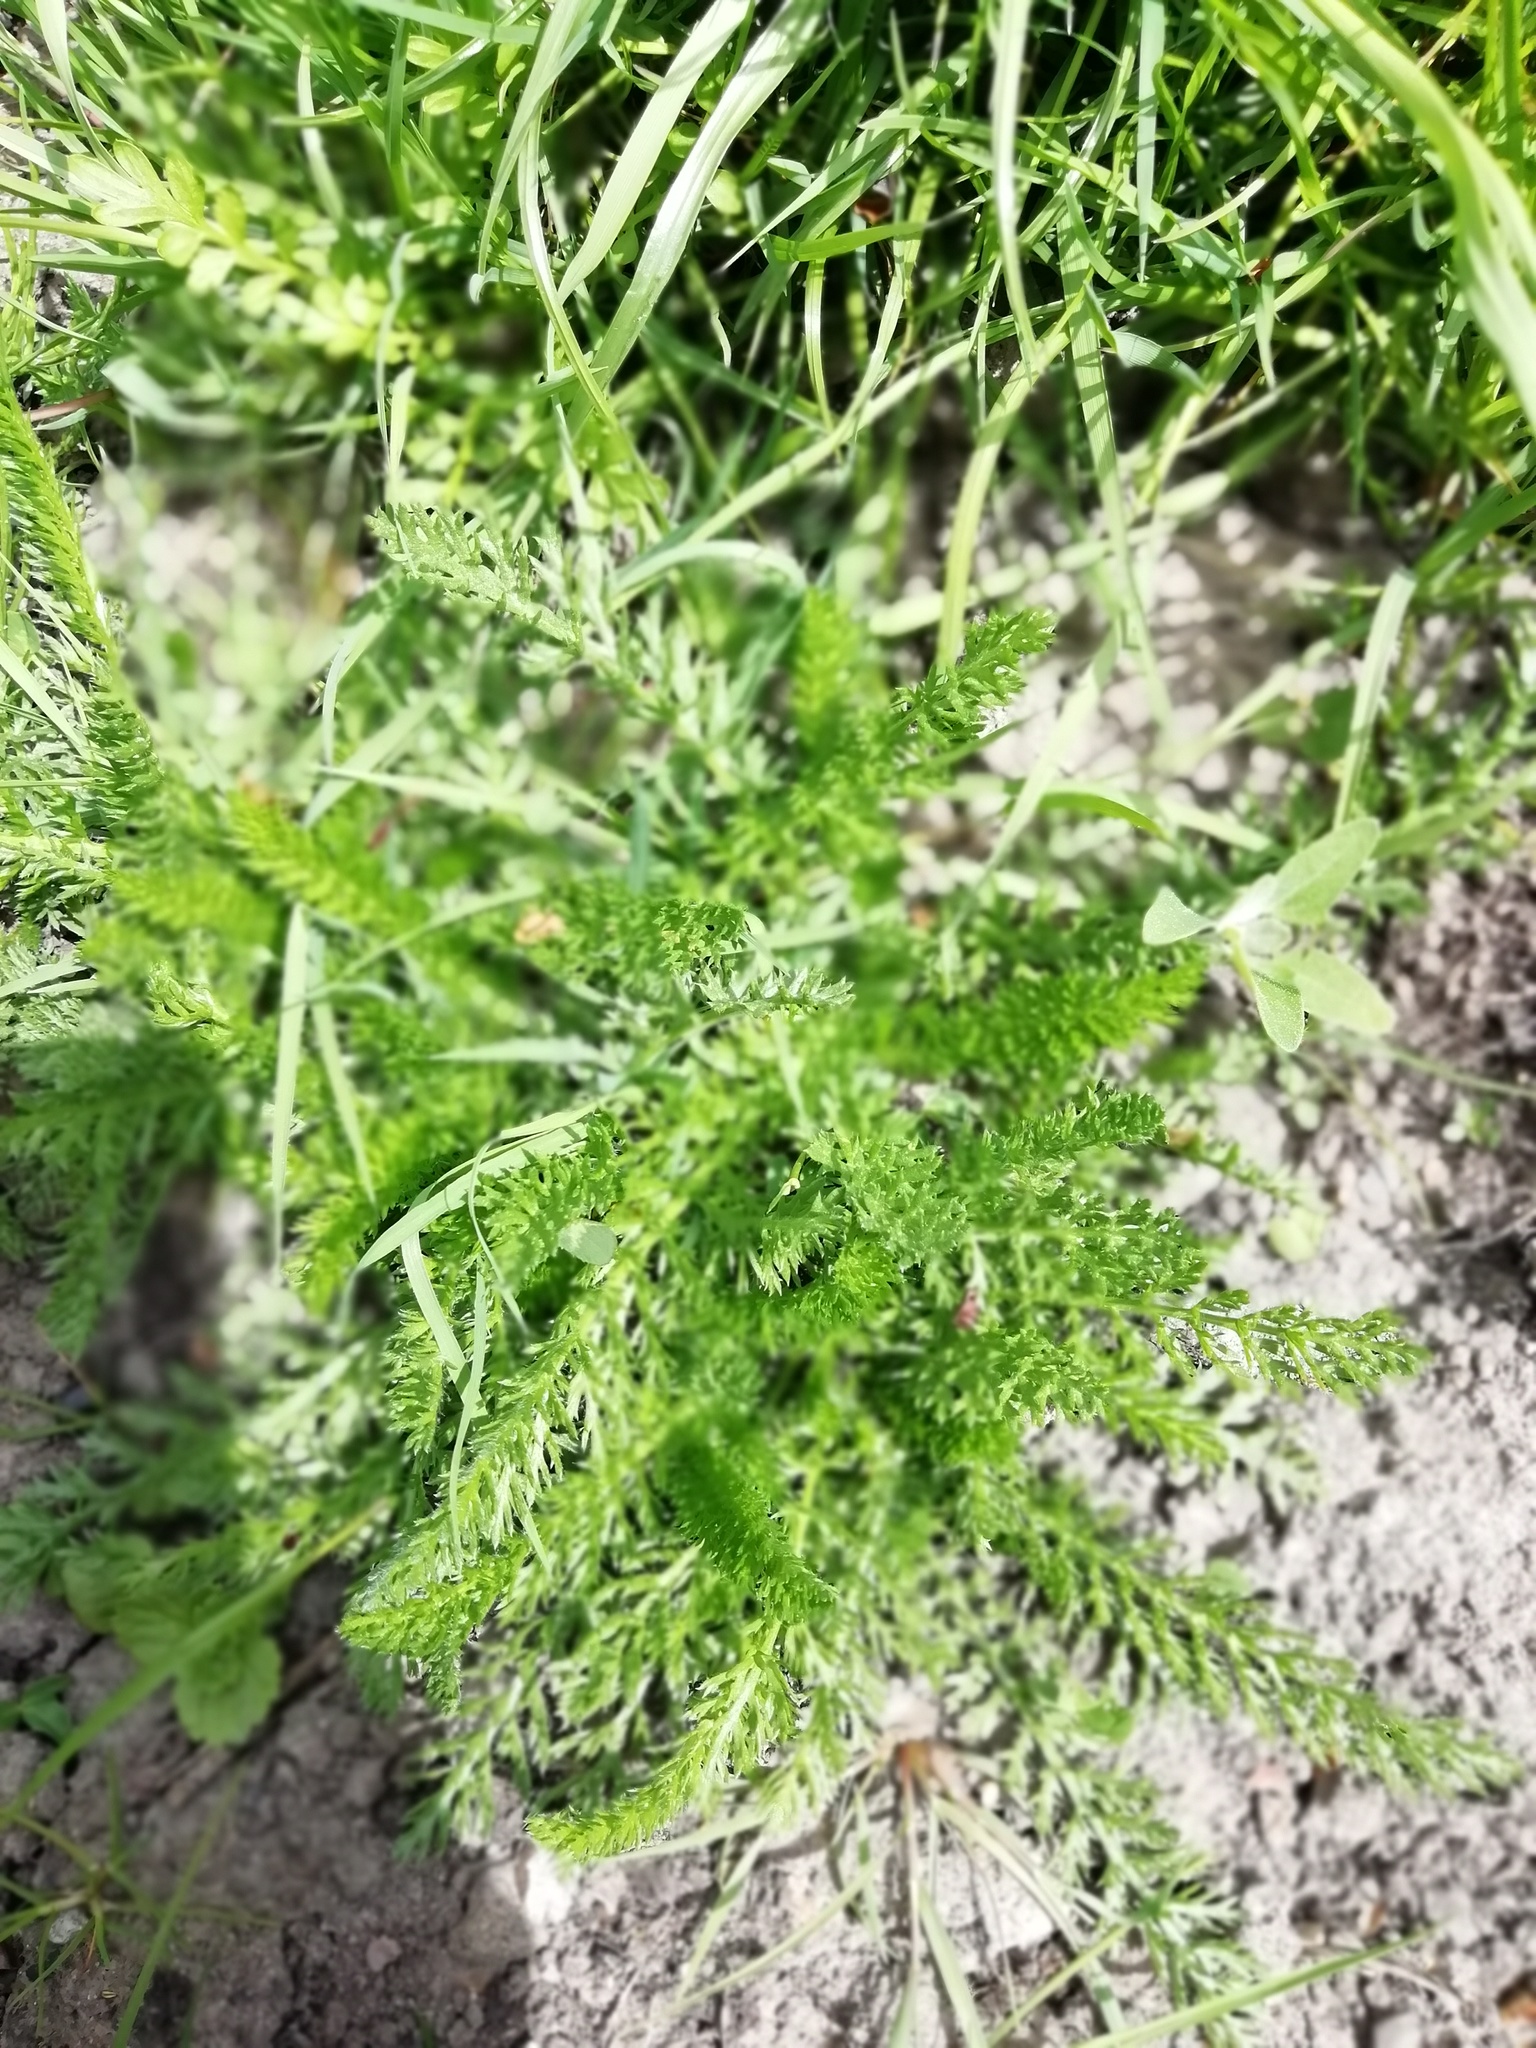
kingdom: Plantae
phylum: Tracheophyta
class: Magnoliopsida
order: Asterales
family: Asteraceae
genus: Achillea
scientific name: Achillea millefolium
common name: Yarrow
